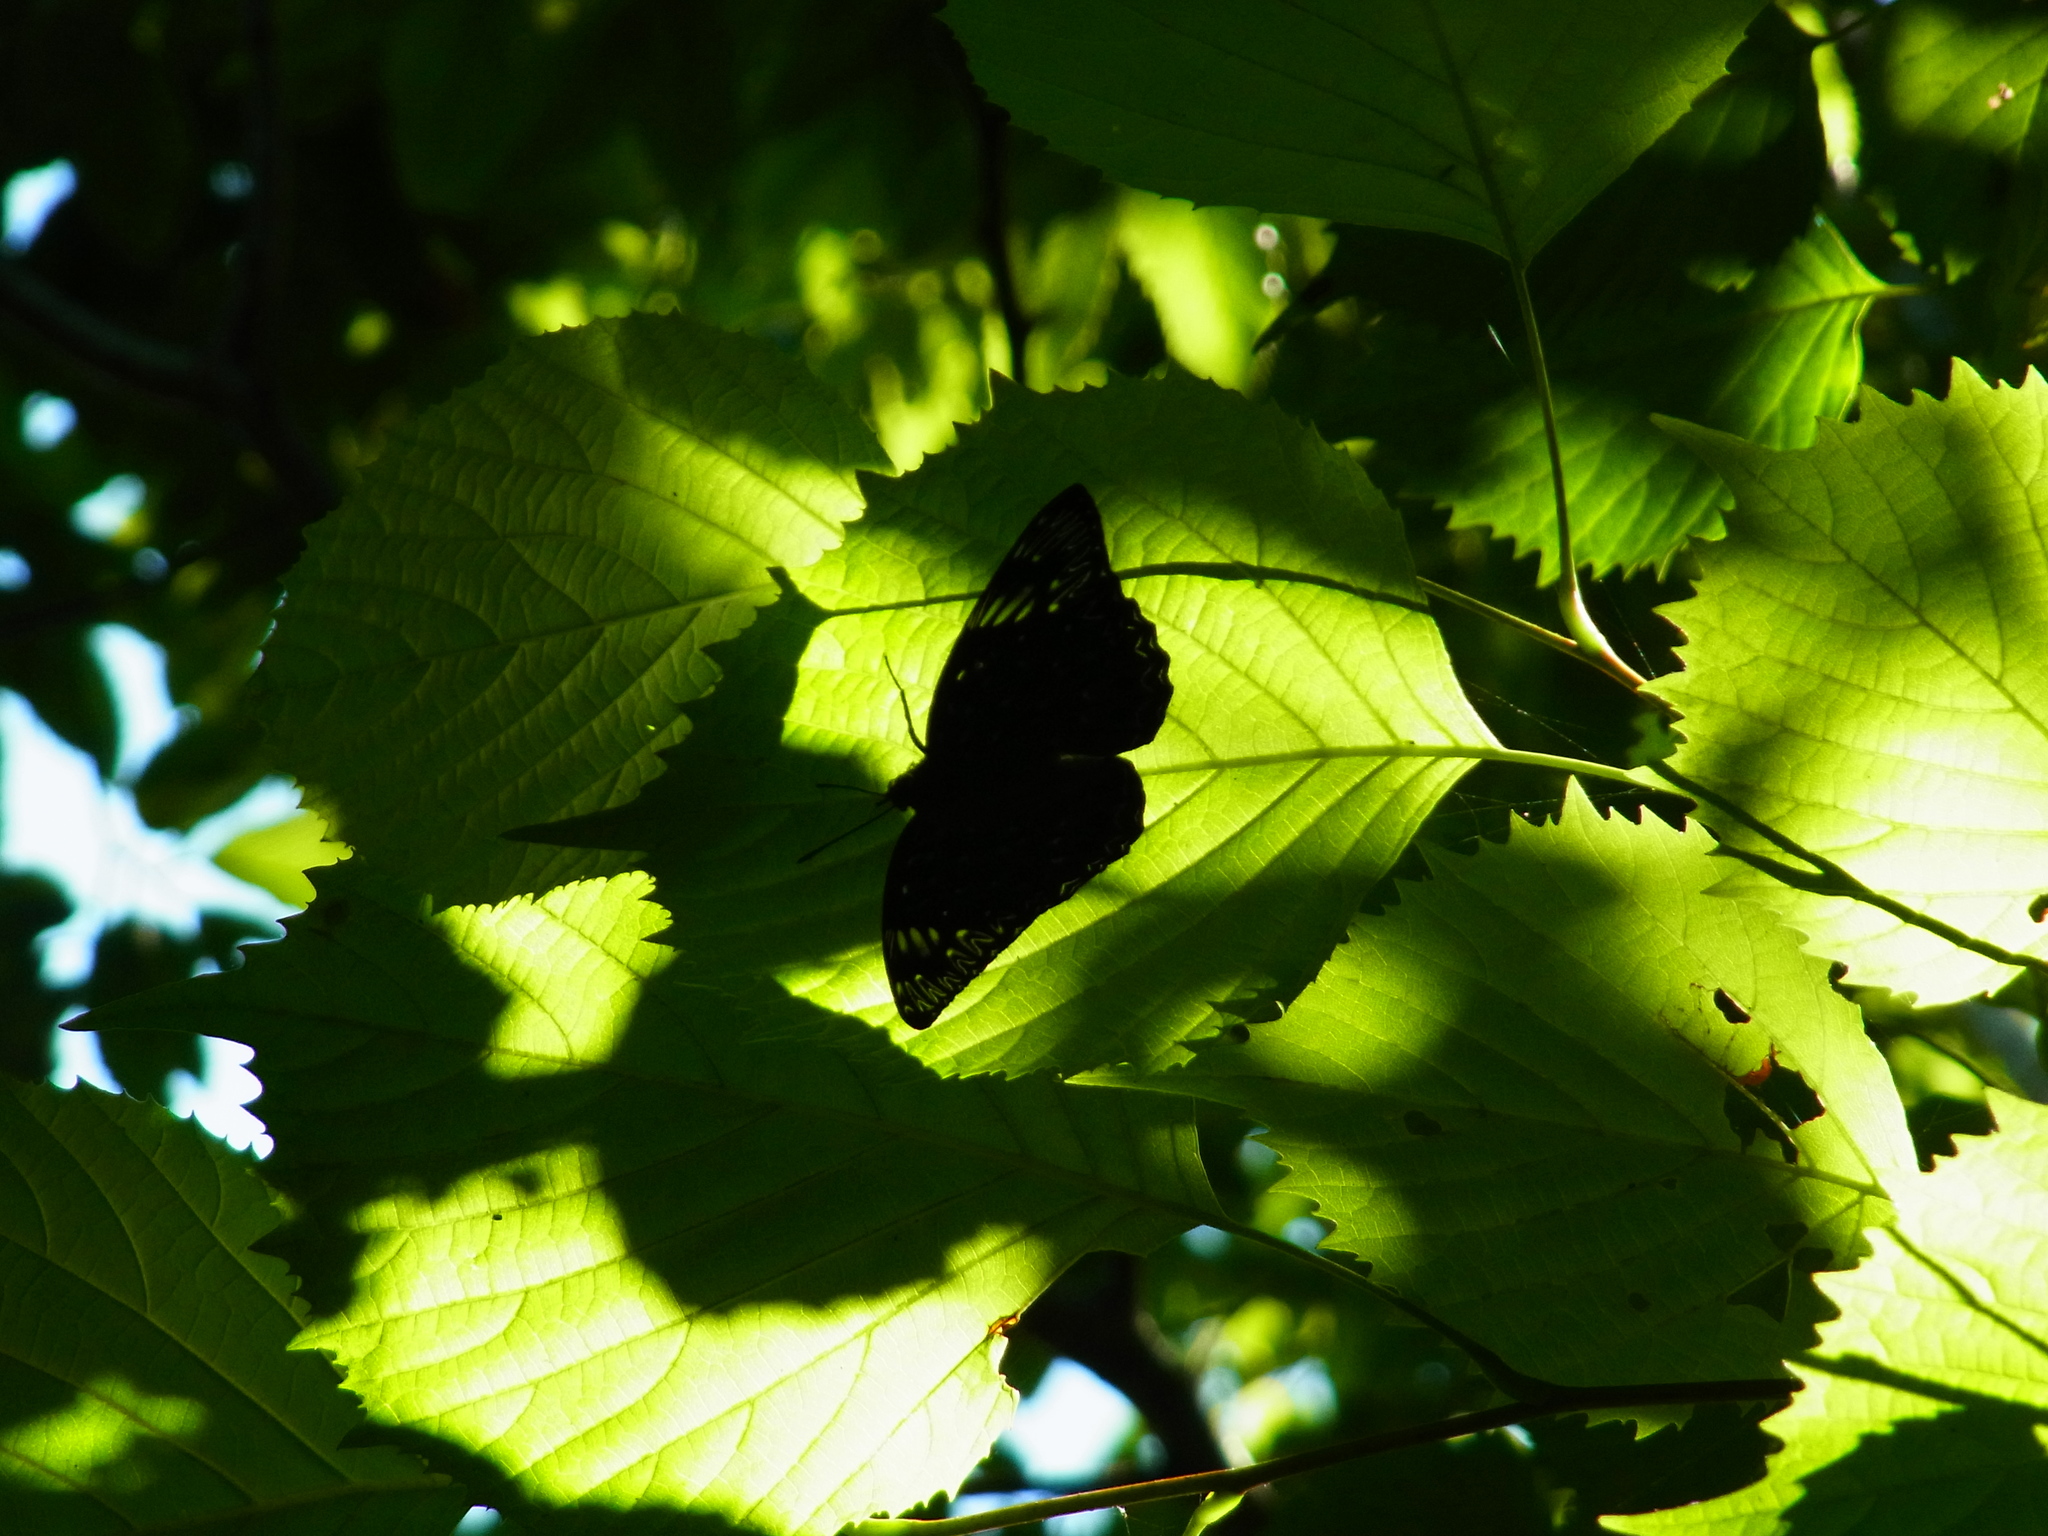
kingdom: Animalia
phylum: Arthropoda
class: Insecta
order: Lepidoptera
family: Nymphalidae
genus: Dichorragia
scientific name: Dichorragia nesimachus
